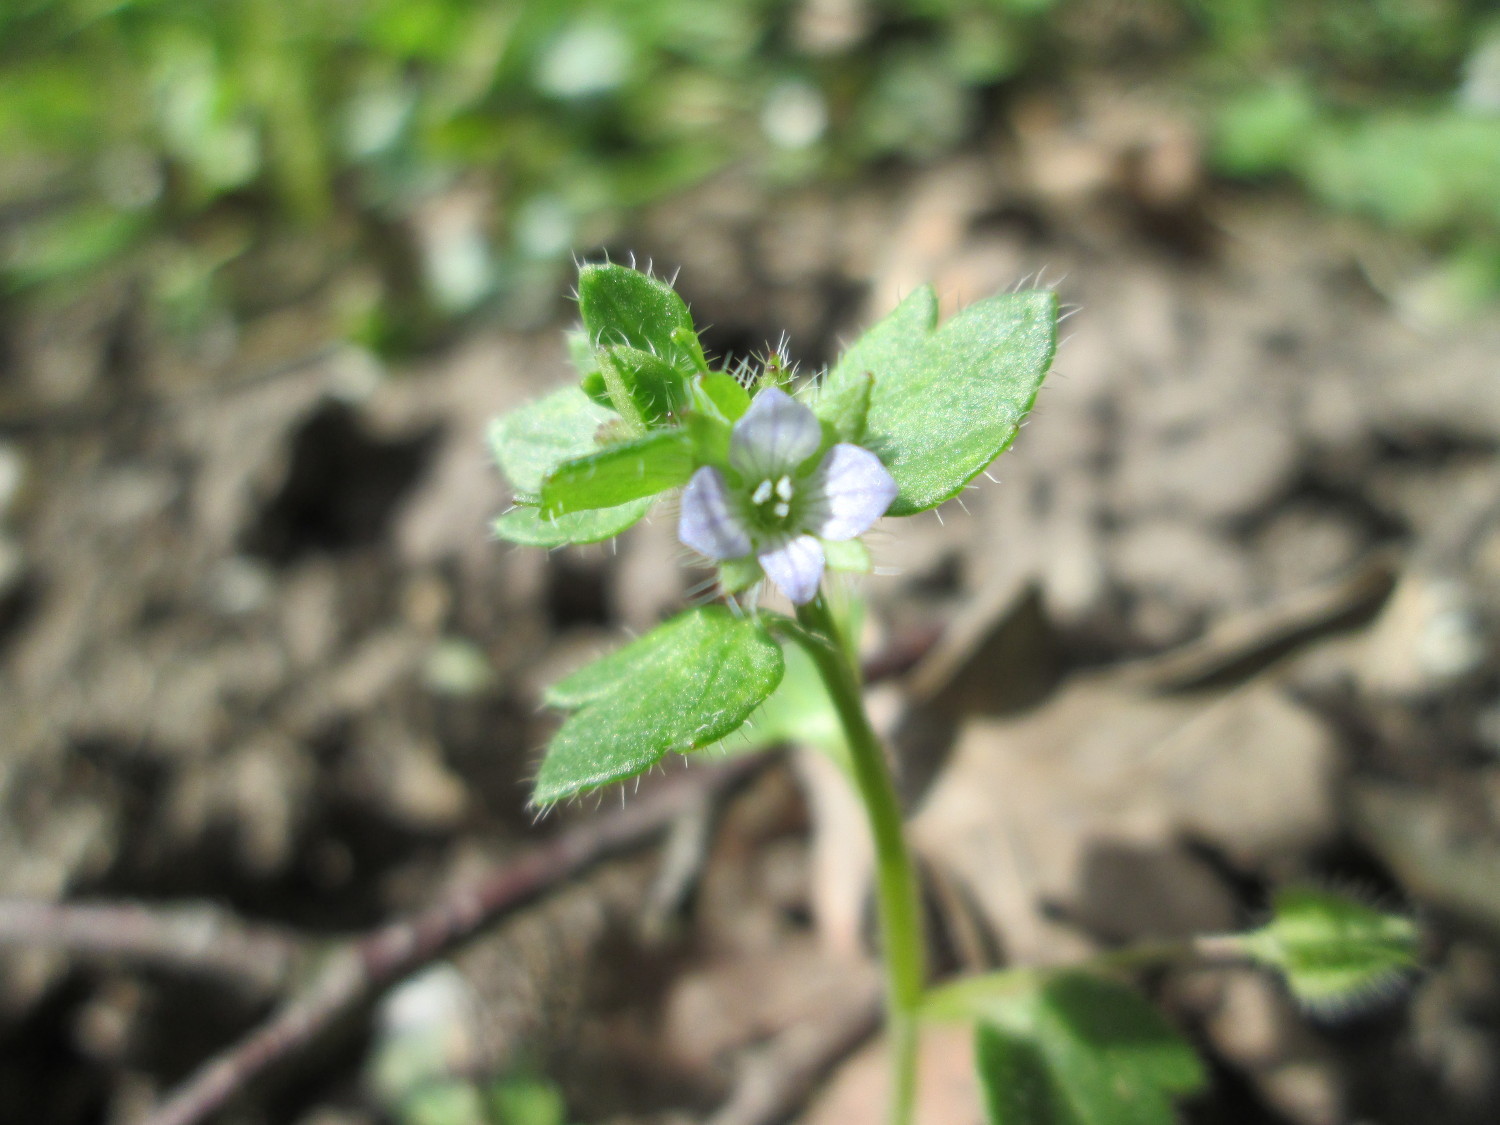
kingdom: Plantae
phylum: Tracheophyta
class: Magnoliopsida
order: Lamiales
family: Plantaginaceae
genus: Veronica
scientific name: Veronica hederifolia
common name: Ivy-leaved speedwell
